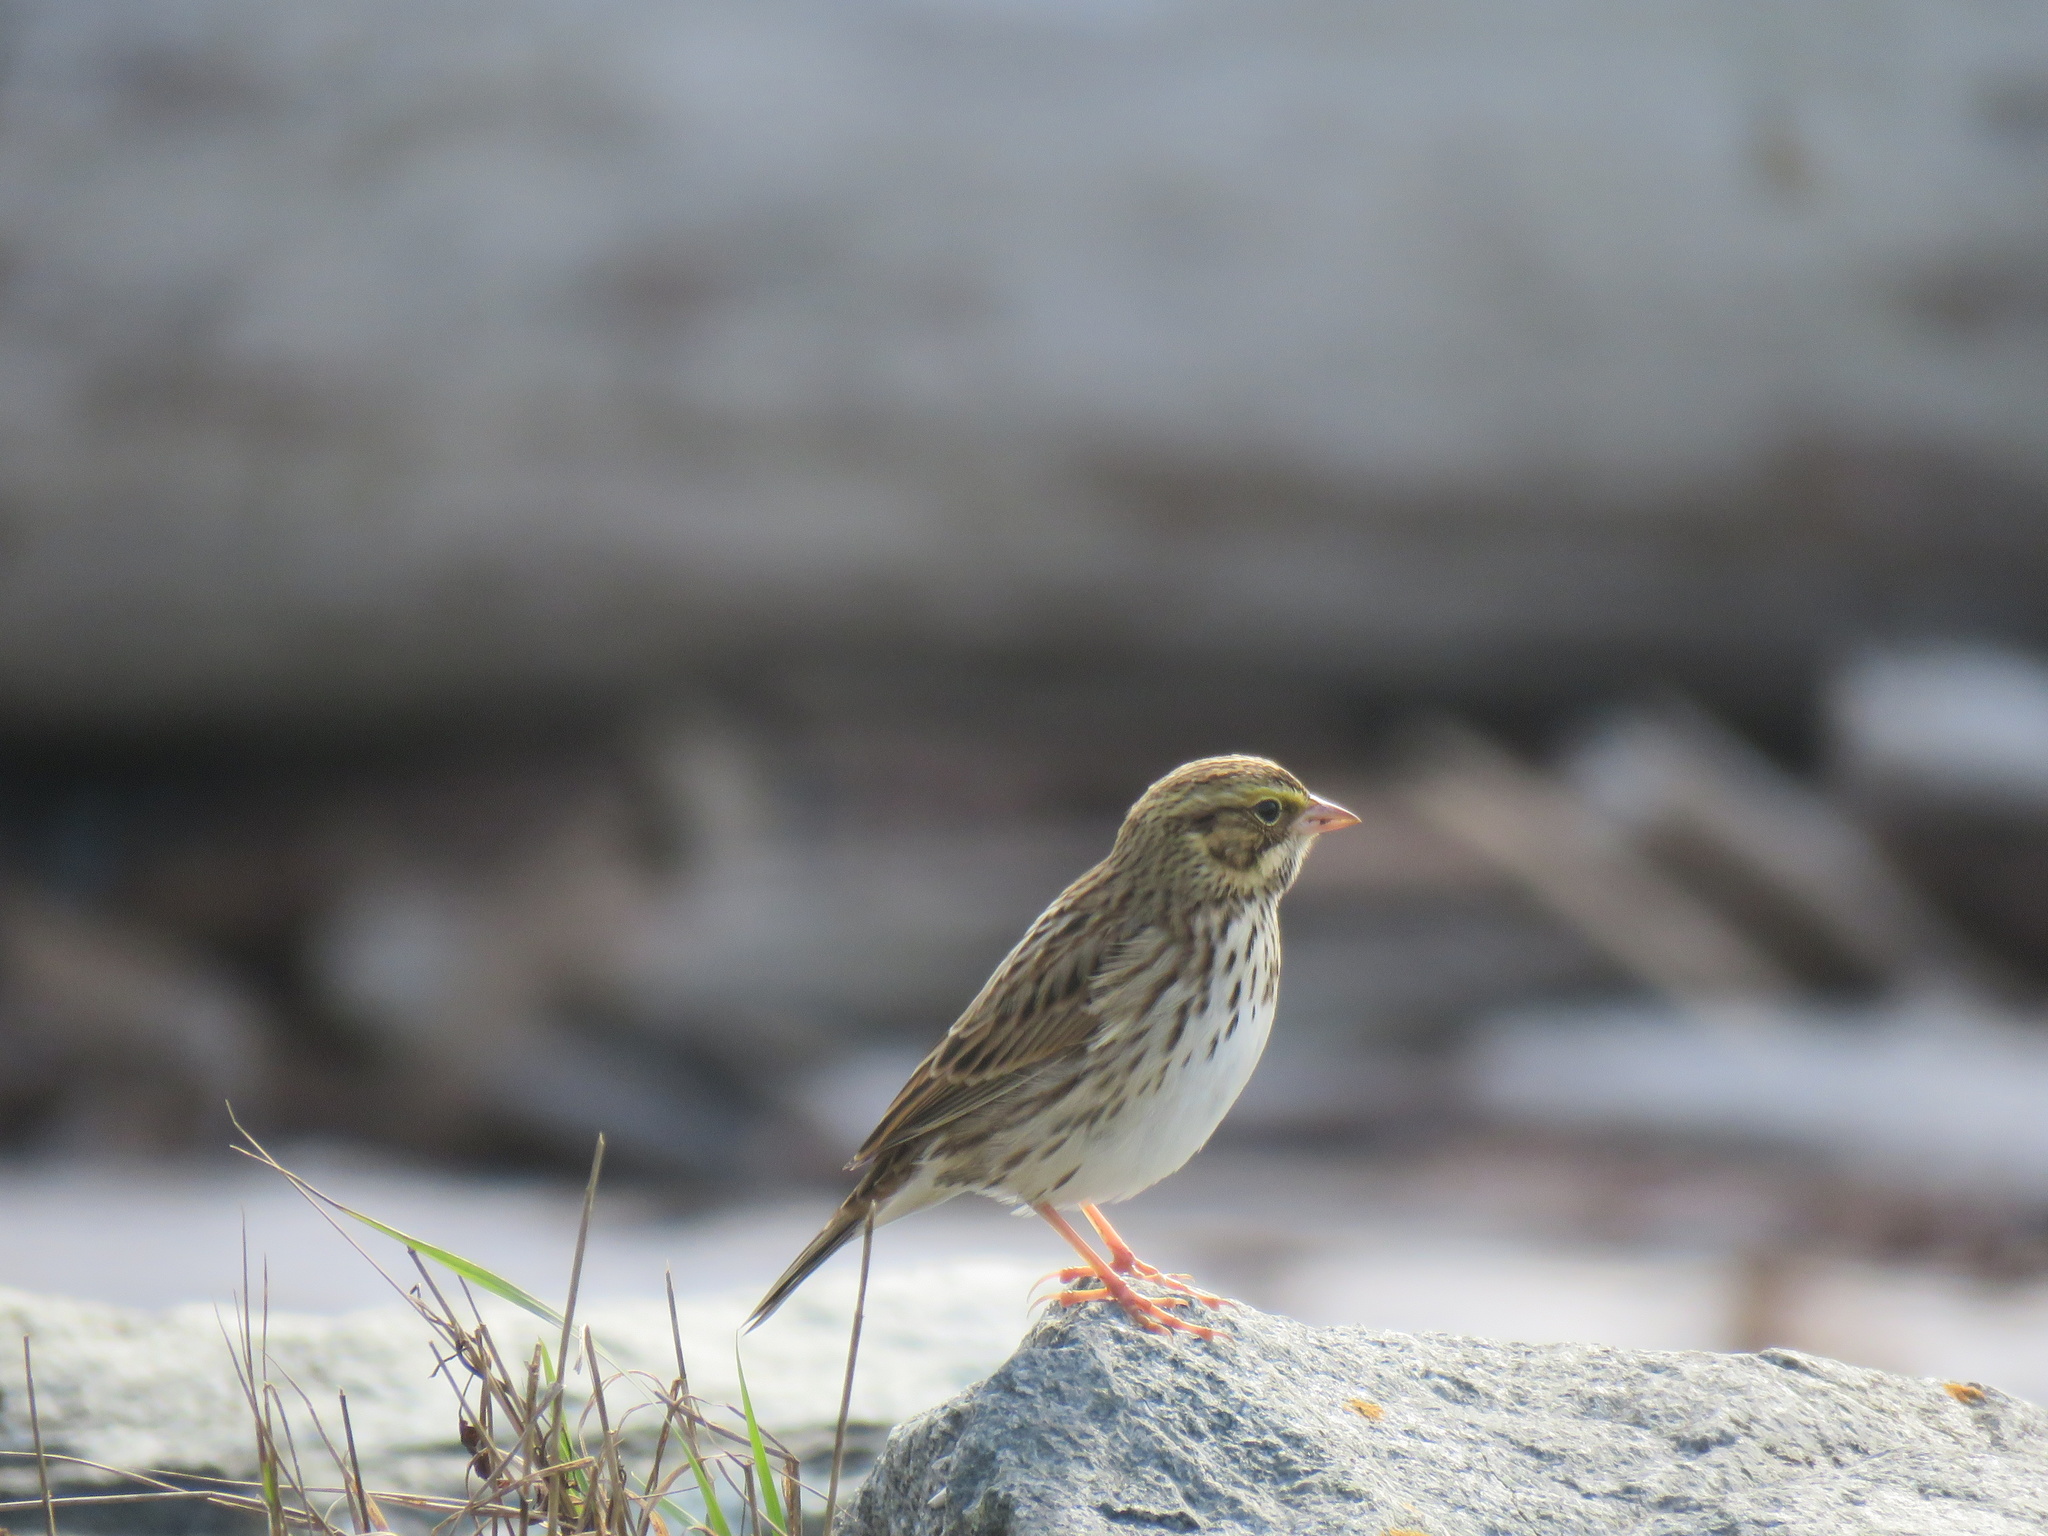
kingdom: Animalia
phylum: Chordata
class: Aves
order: Passeriformes
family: Passerellidae
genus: Passerculus
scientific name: Passerculus sandwichensis
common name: Savannah sparrow
